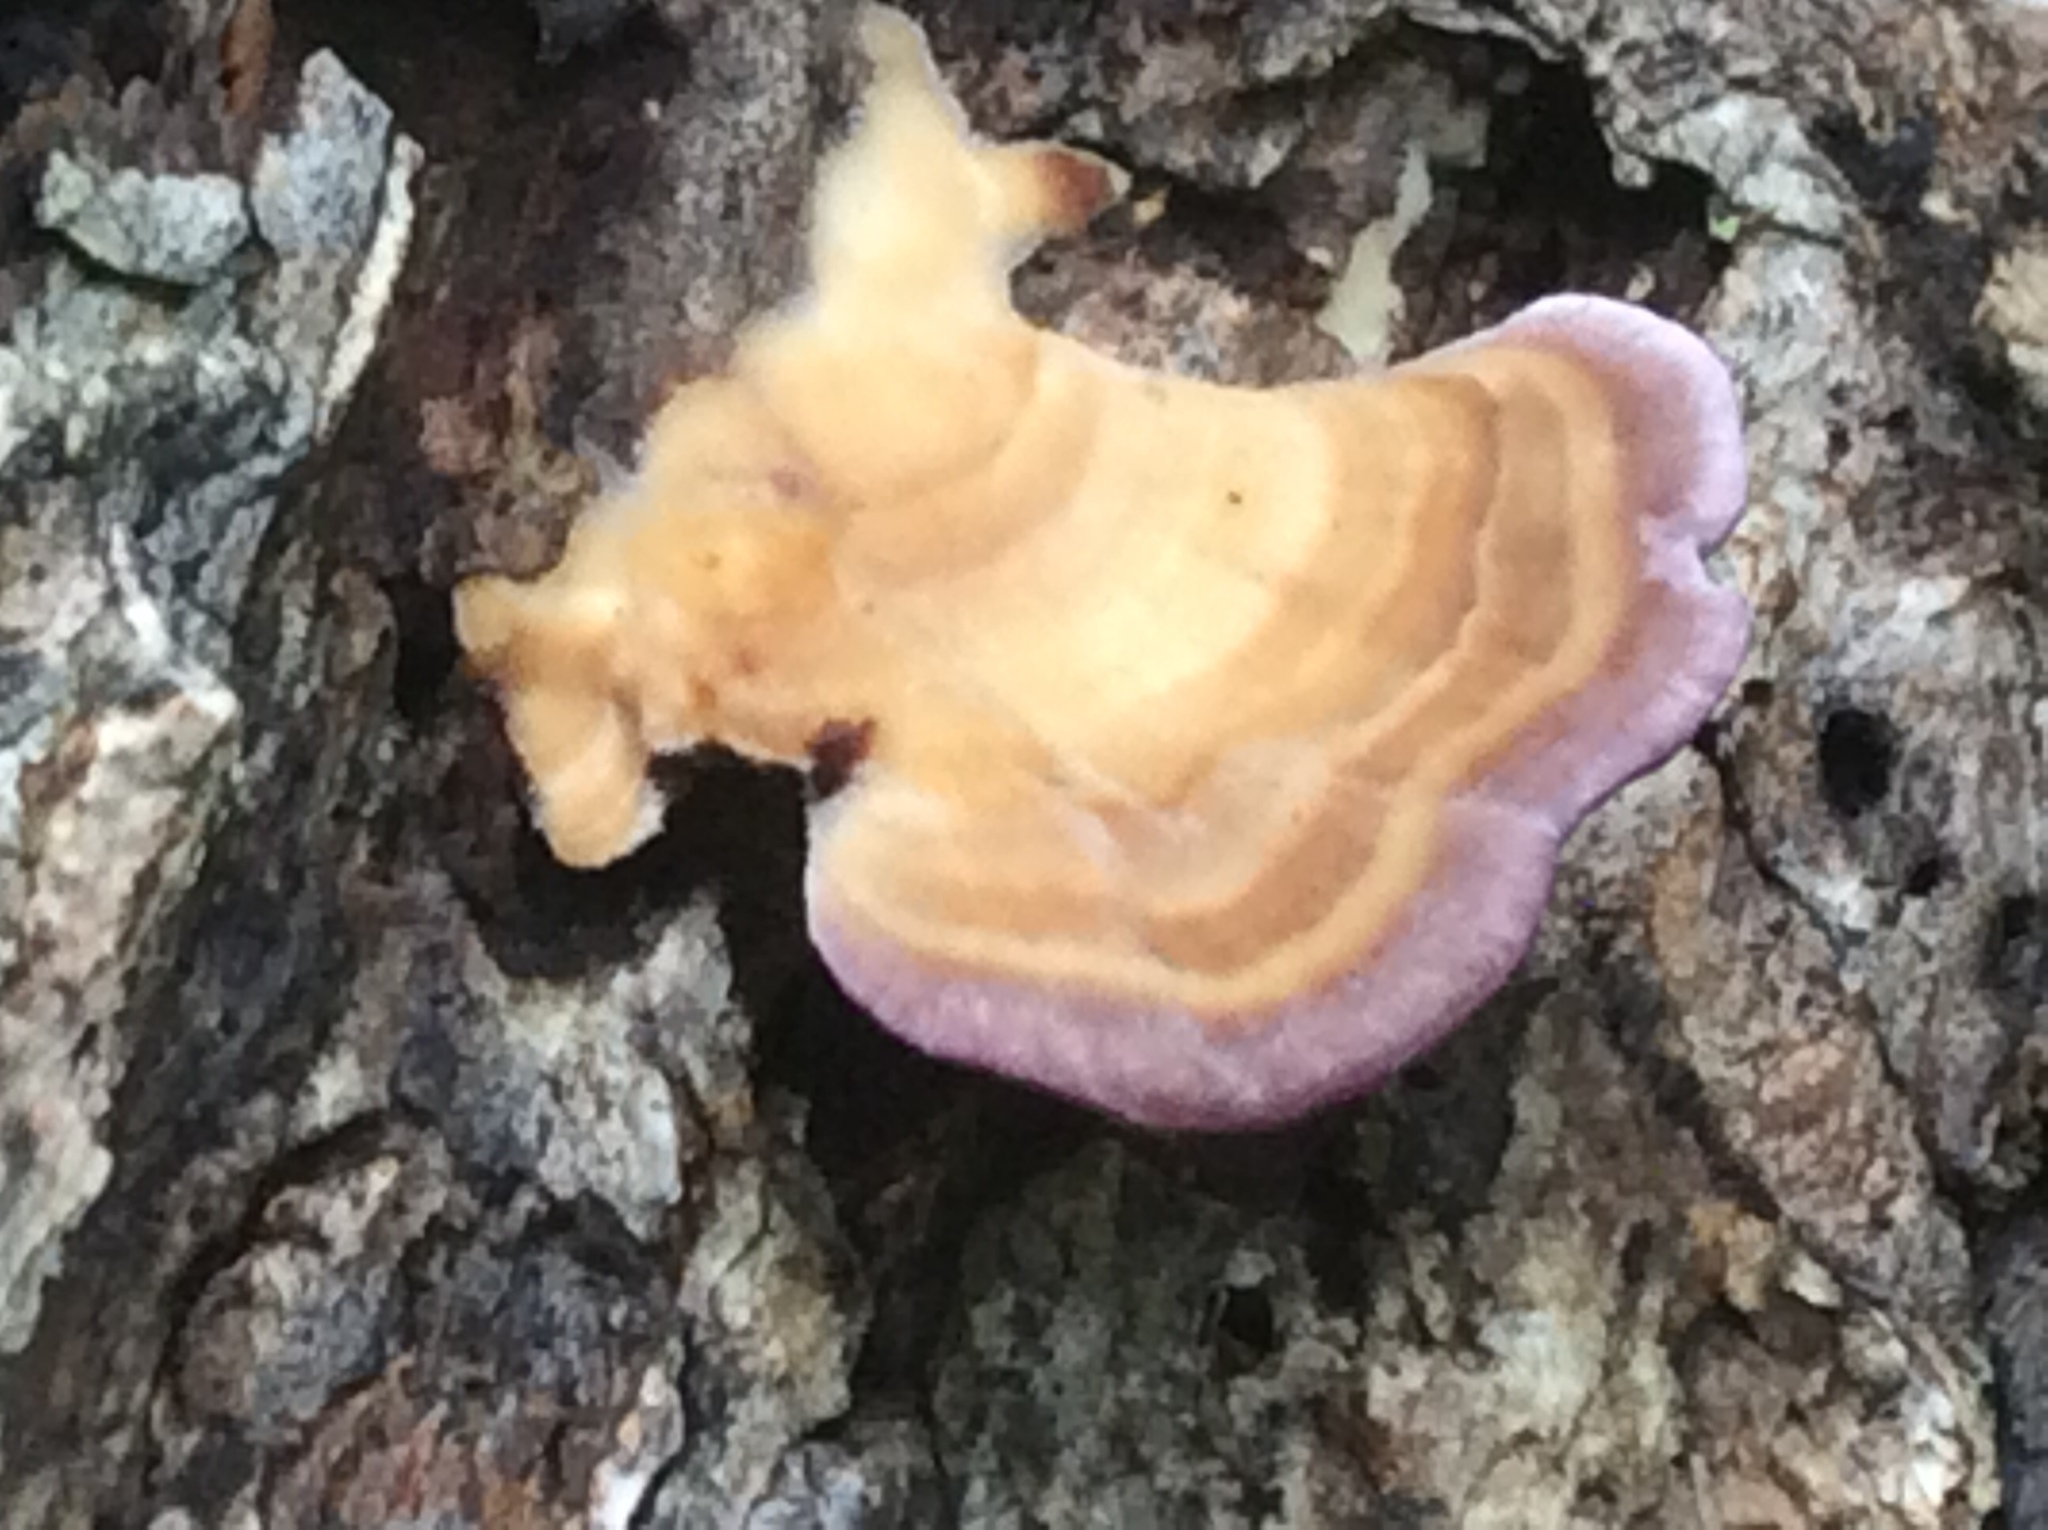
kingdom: Fungi
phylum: Basidiomycota
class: Agaricomycetes
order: Hymenochaetales
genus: Trichaptum
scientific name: Trichaptum biforme
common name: Violet-toothed polypore
